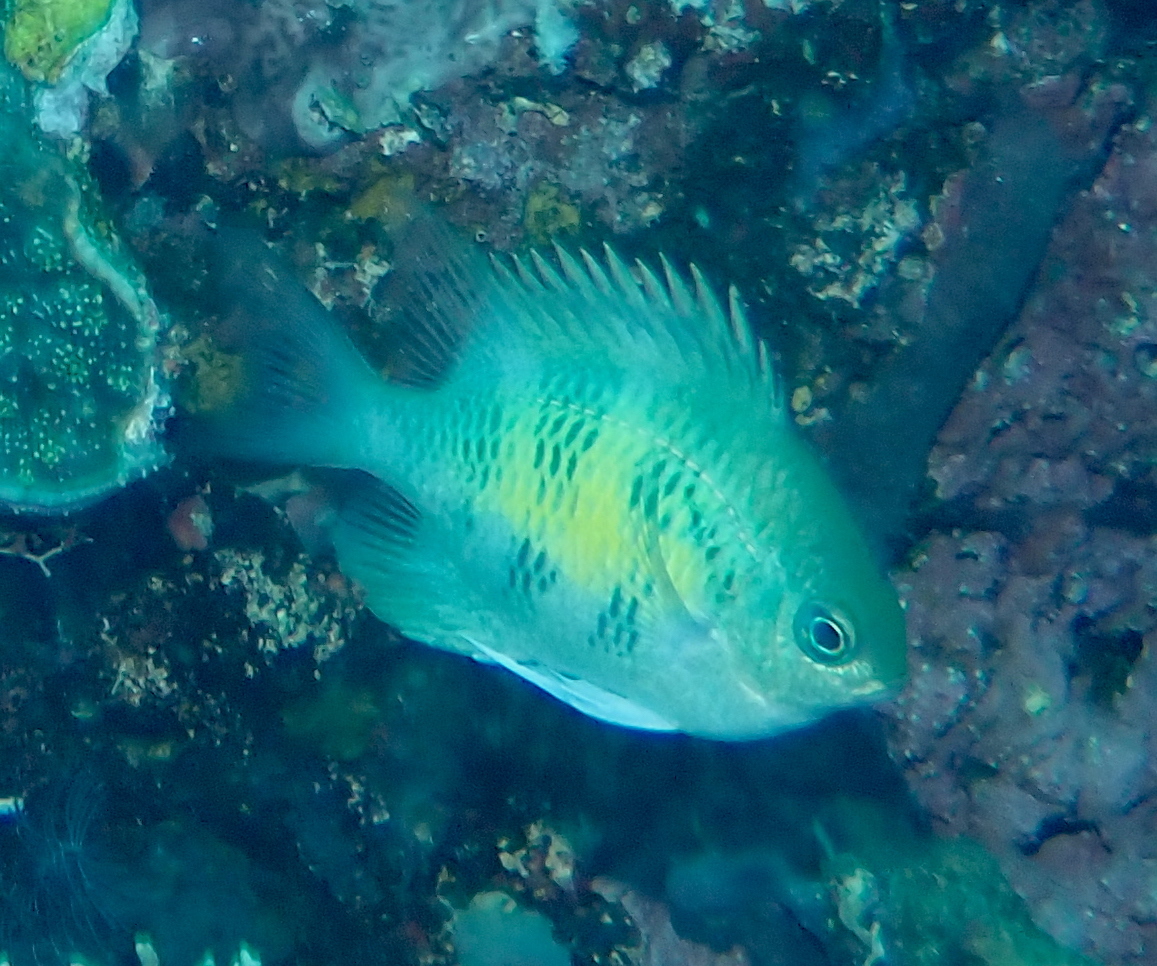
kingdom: Animalia
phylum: Chordata
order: Perciformes
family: Pomacentridae
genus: Amblyglyphidodon
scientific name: Amblyglyphidodon curacao
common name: Staghorn damsel
